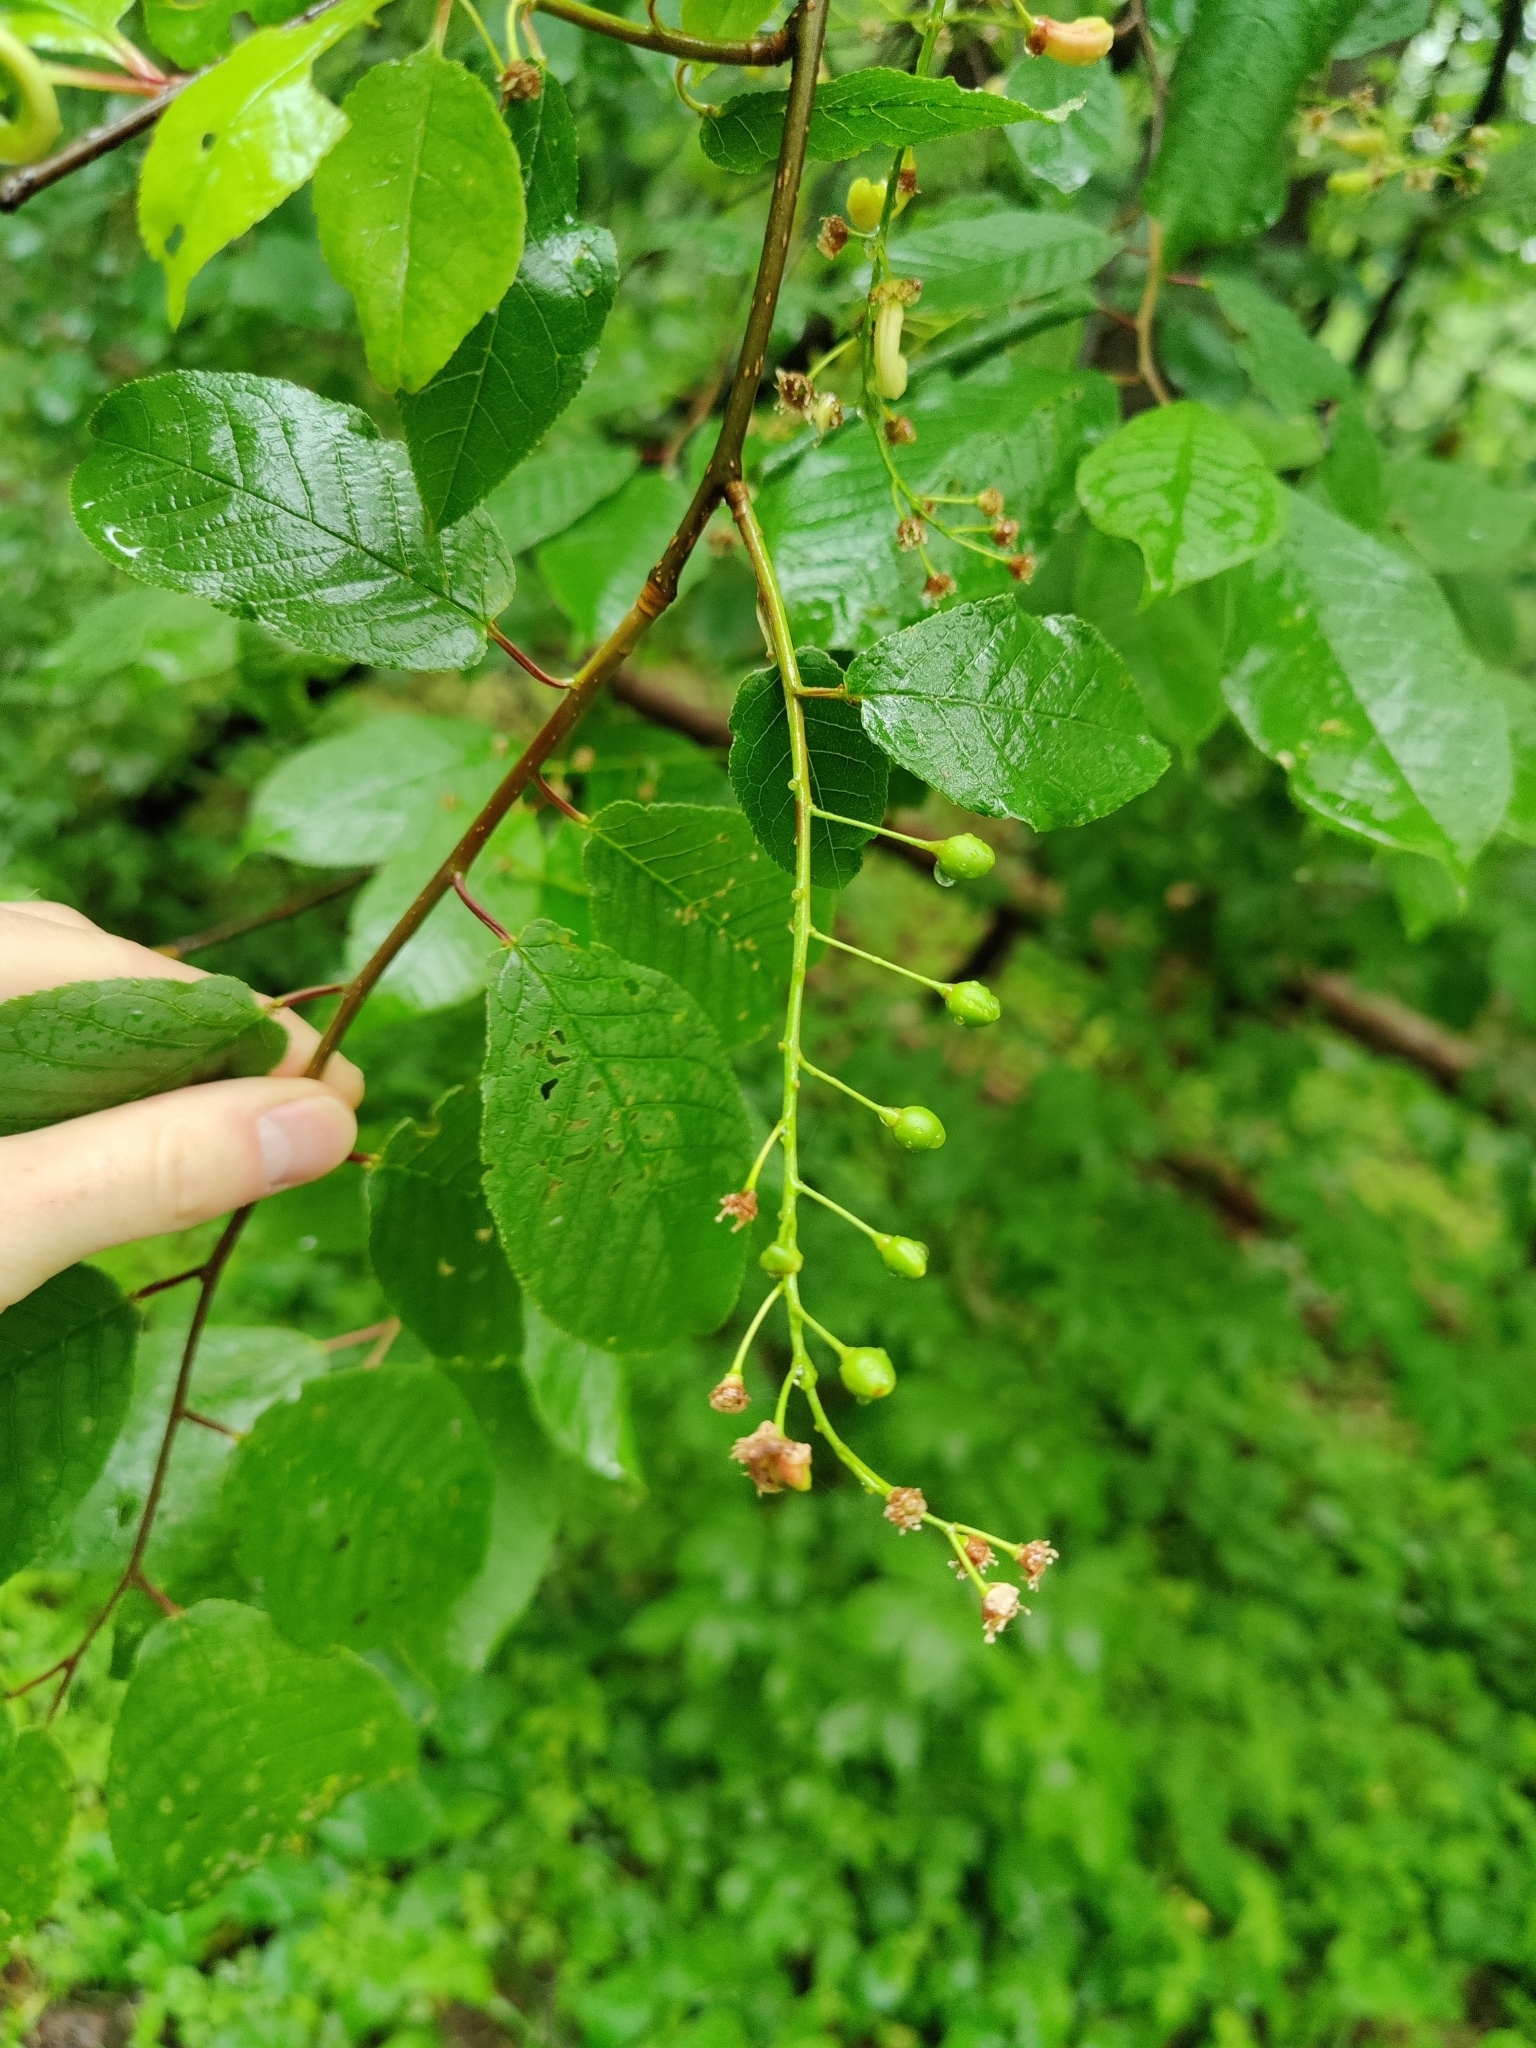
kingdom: Plantae
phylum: Tracheophyta
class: Magnoliopsida
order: Rosales
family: Rosaceae
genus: Prunus
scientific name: Prunus padus
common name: Bird cherry
